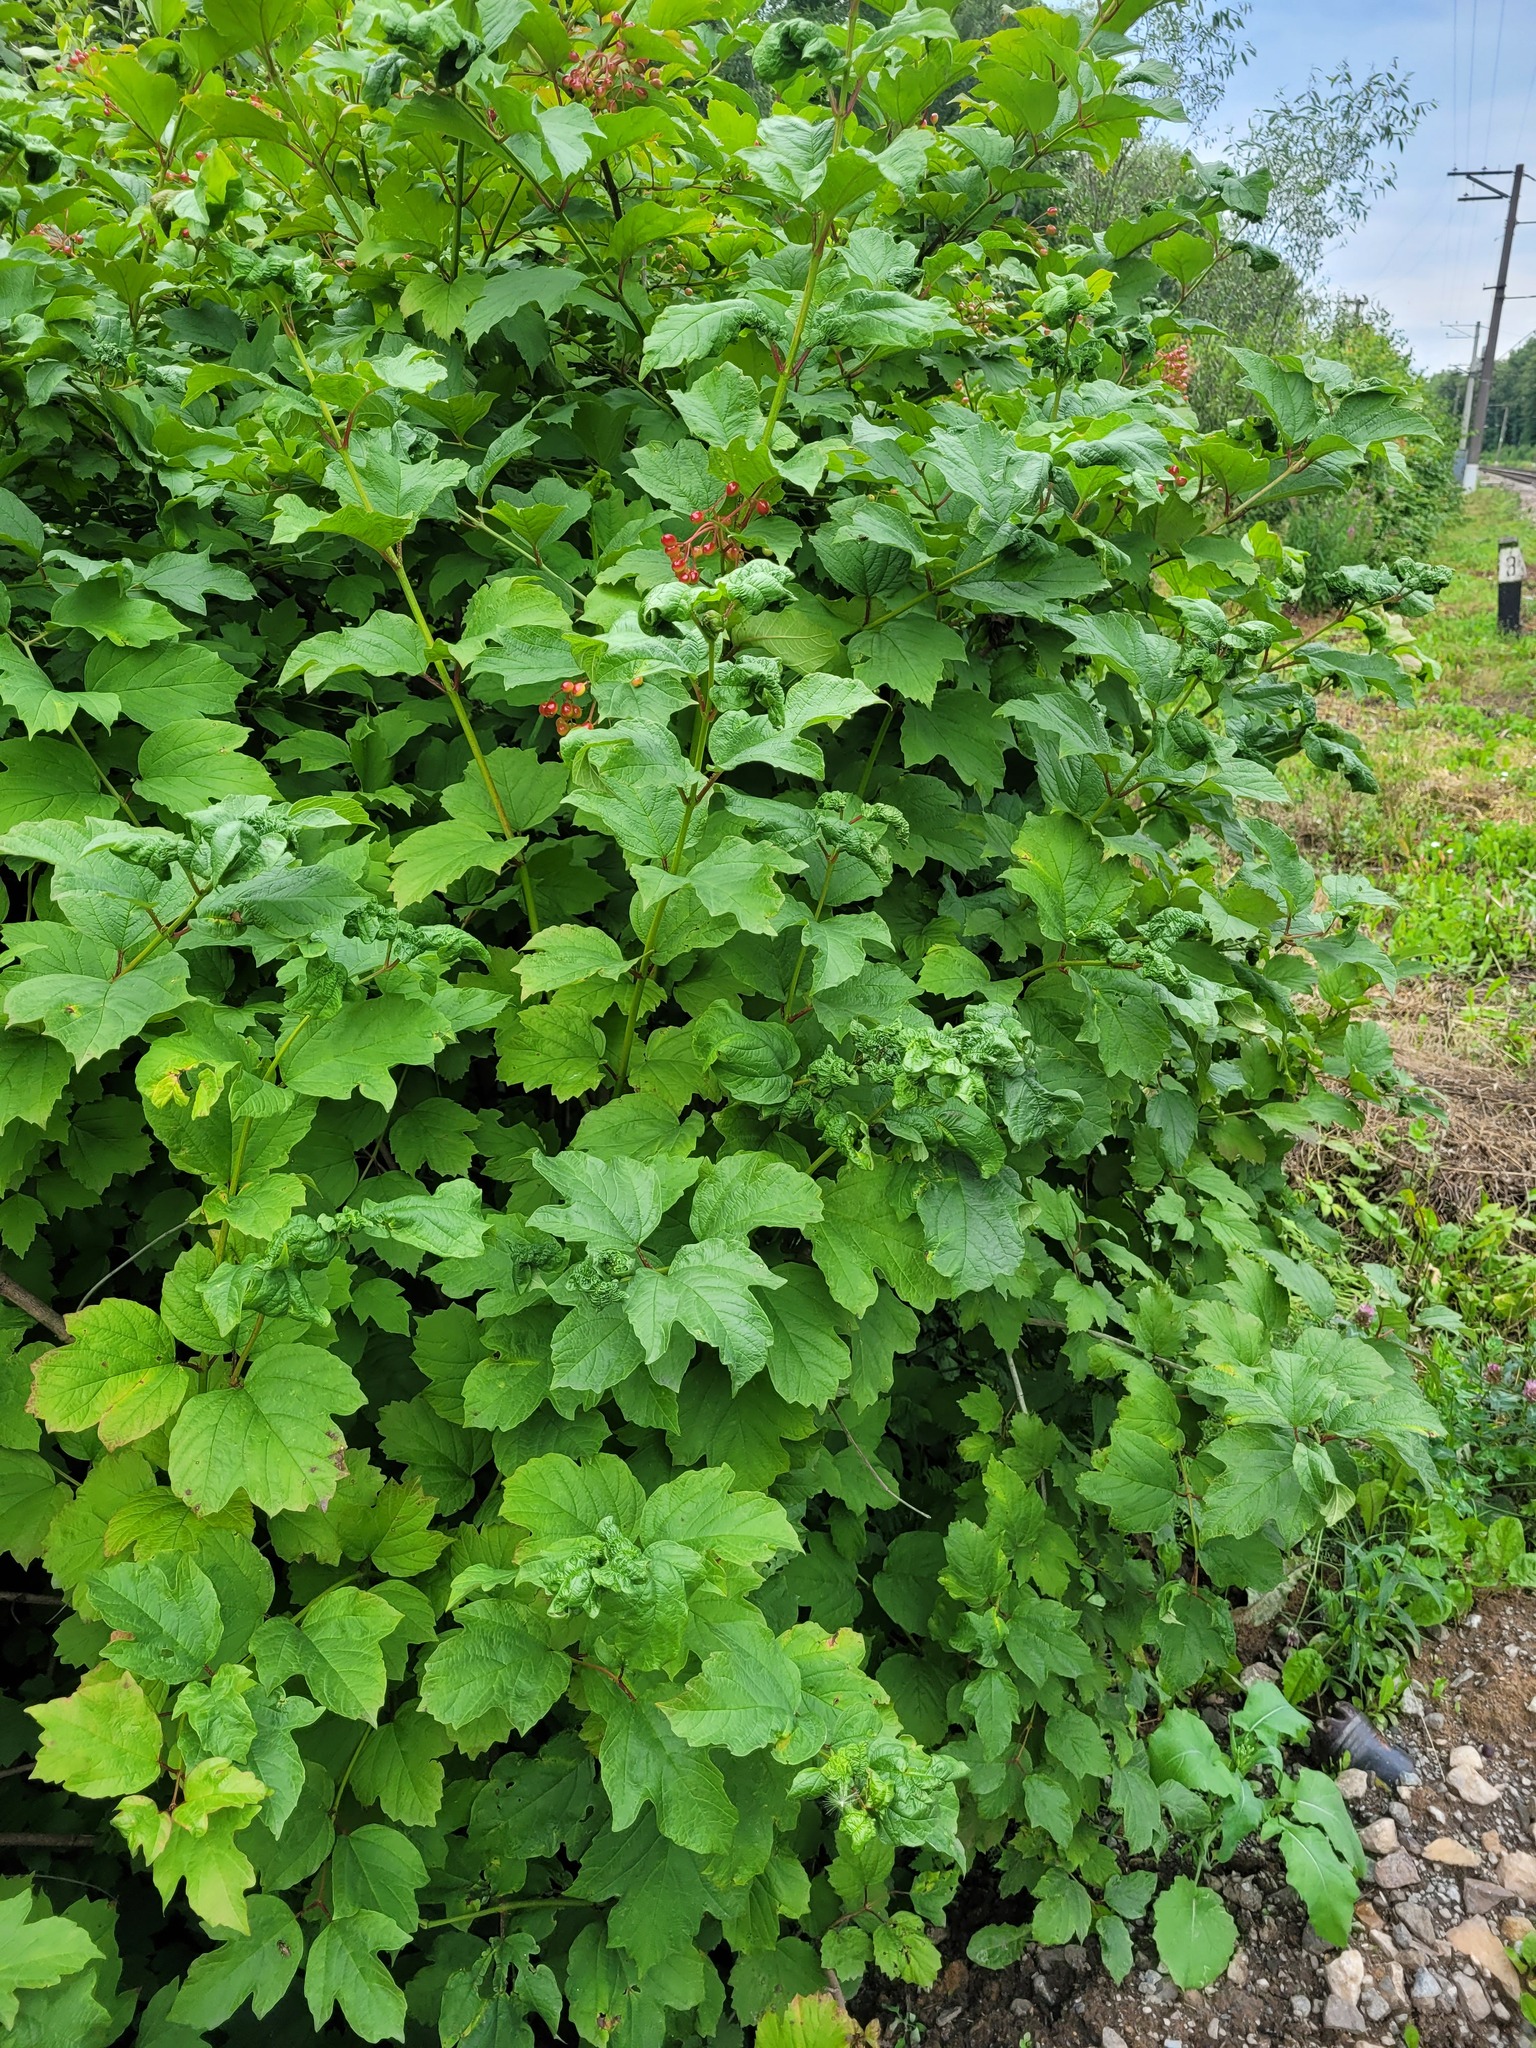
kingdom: Plantae
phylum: Tracheophyta
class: Magnoliopsida
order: Dipsacales
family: Viburnaceae
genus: Viburnum
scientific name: Viburnum opulus
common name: Guelder-rose
